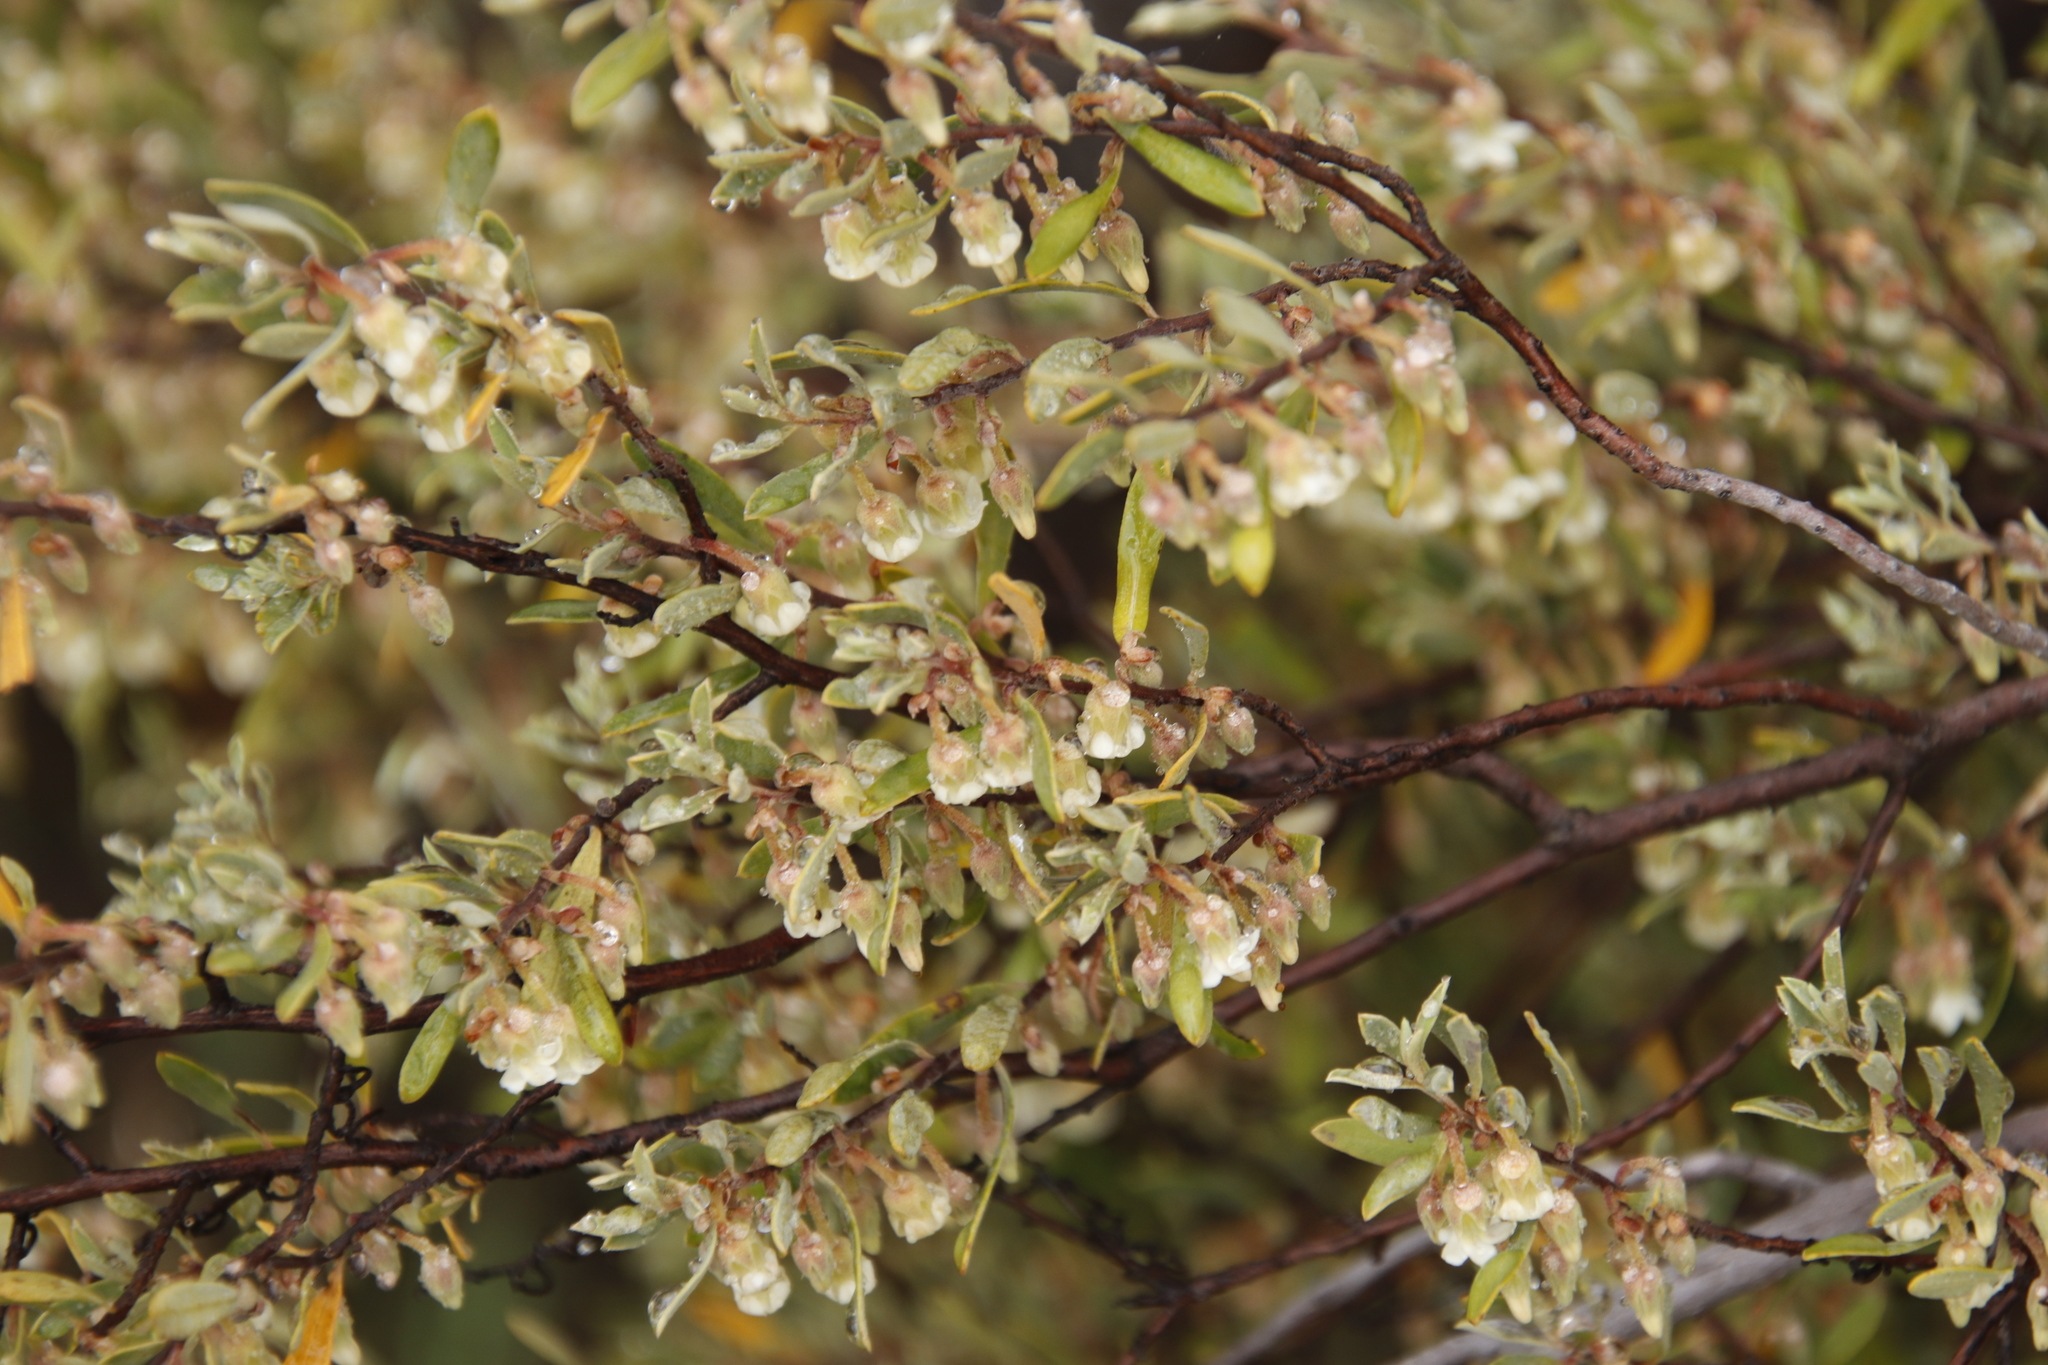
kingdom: Plantae
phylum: Tracheophyta
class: Magnoliopsida
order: Ericales
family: Ebenaceae
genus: Diospyros
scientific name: Diospyros glabra
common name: Fynbos star apple
